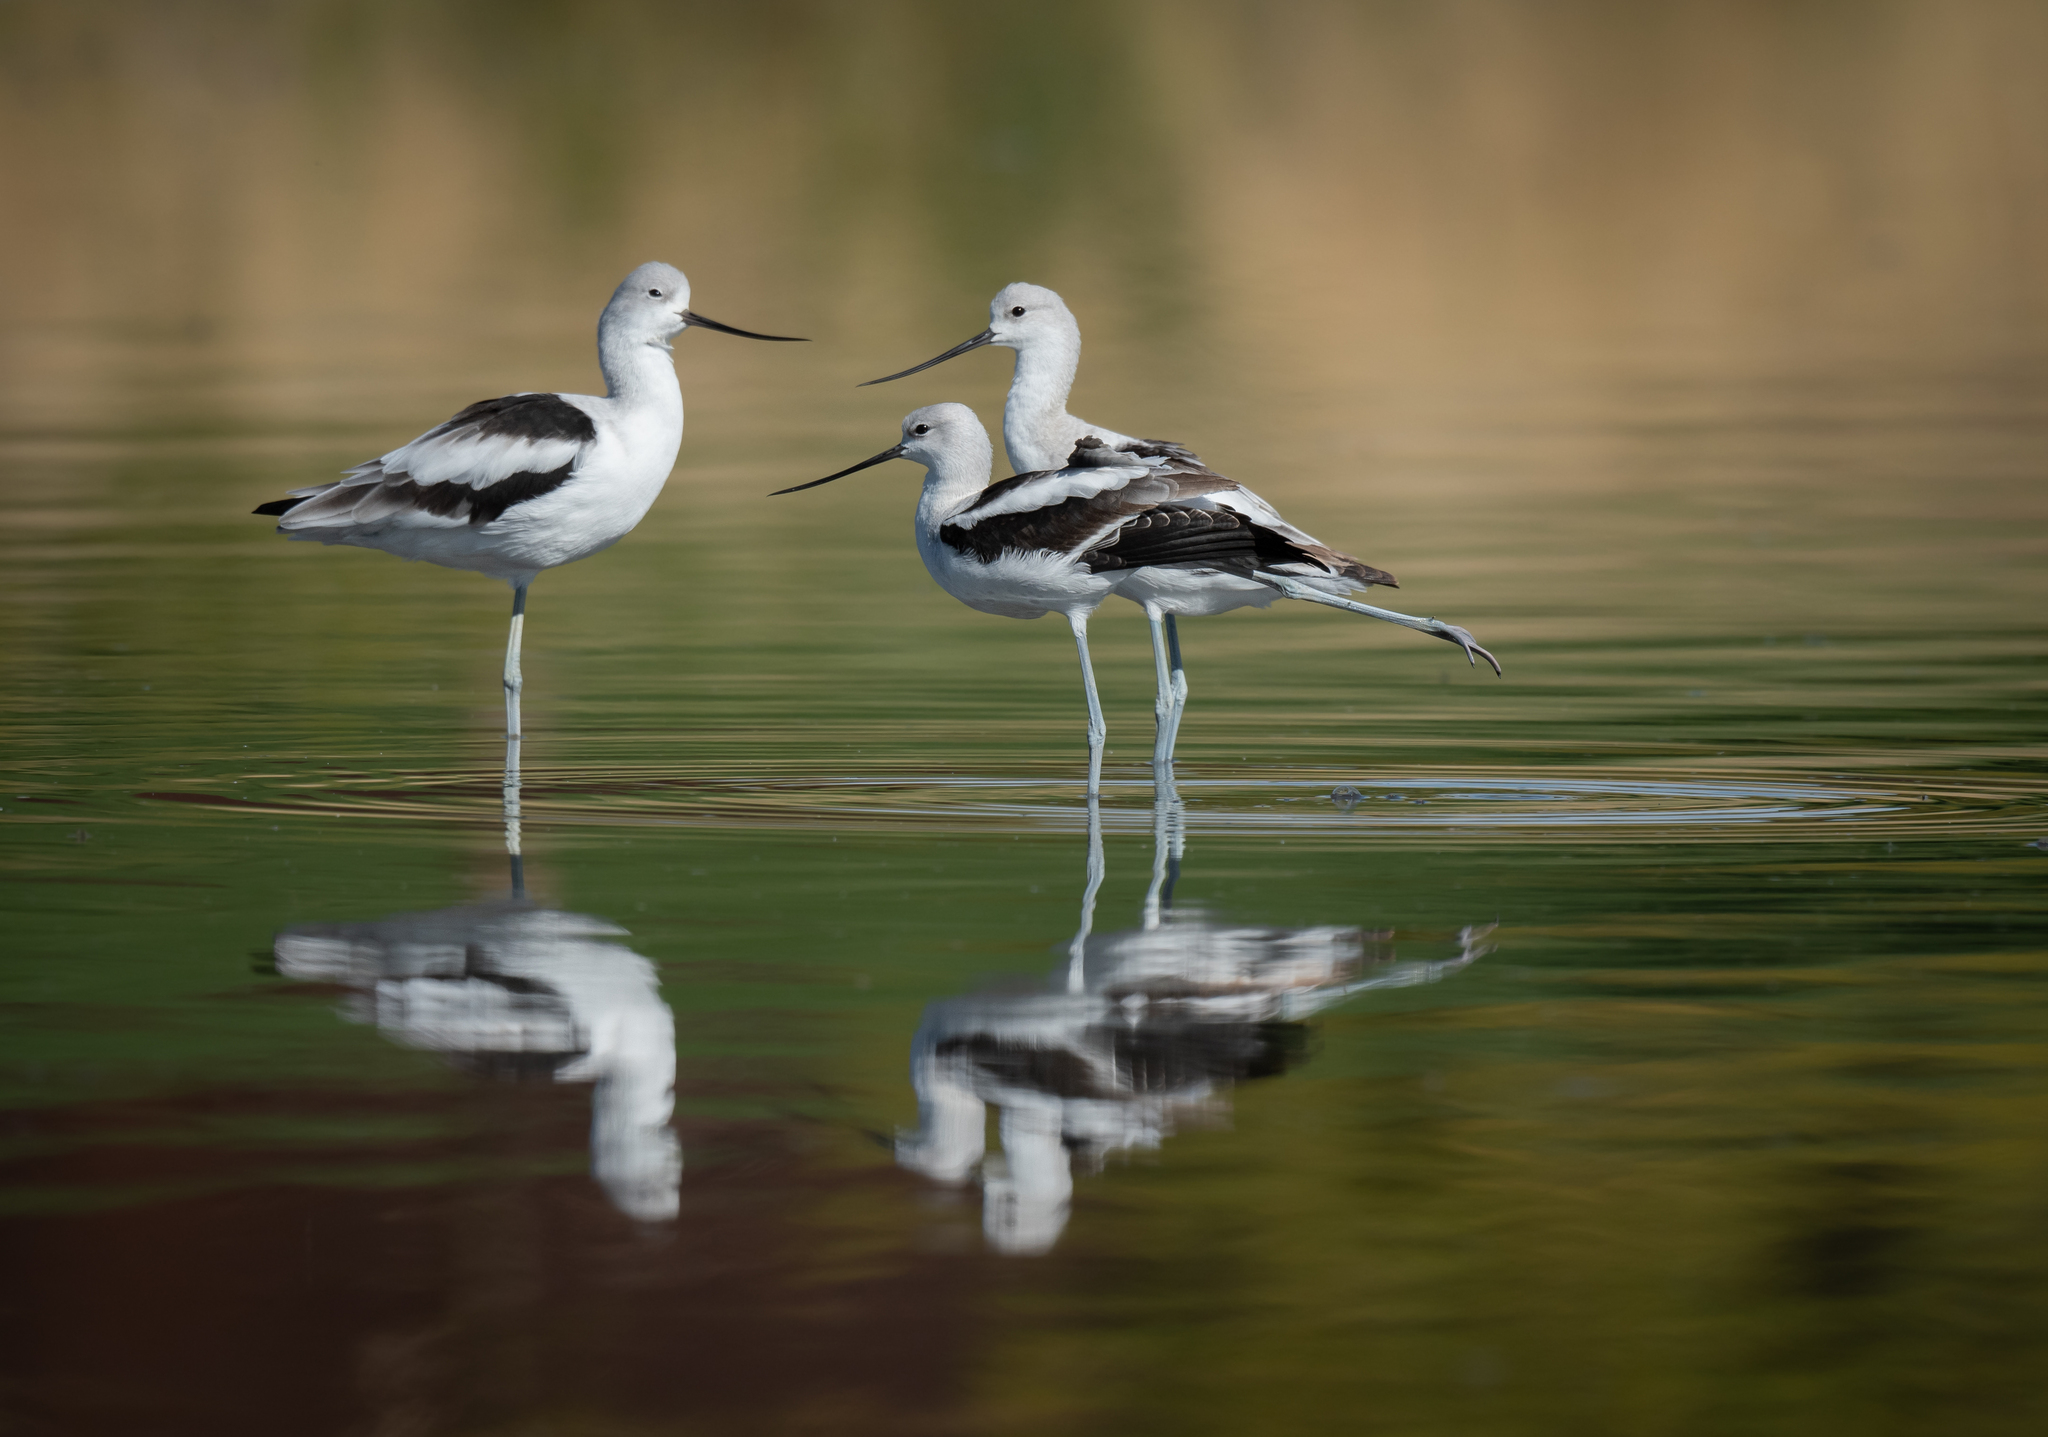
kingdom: Animalia
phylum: Chordata
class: Aves
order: Charadriiformes
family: Recurvirostridae
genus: Recurvirostra
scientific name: Recurvirostra americana
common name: American avocet
